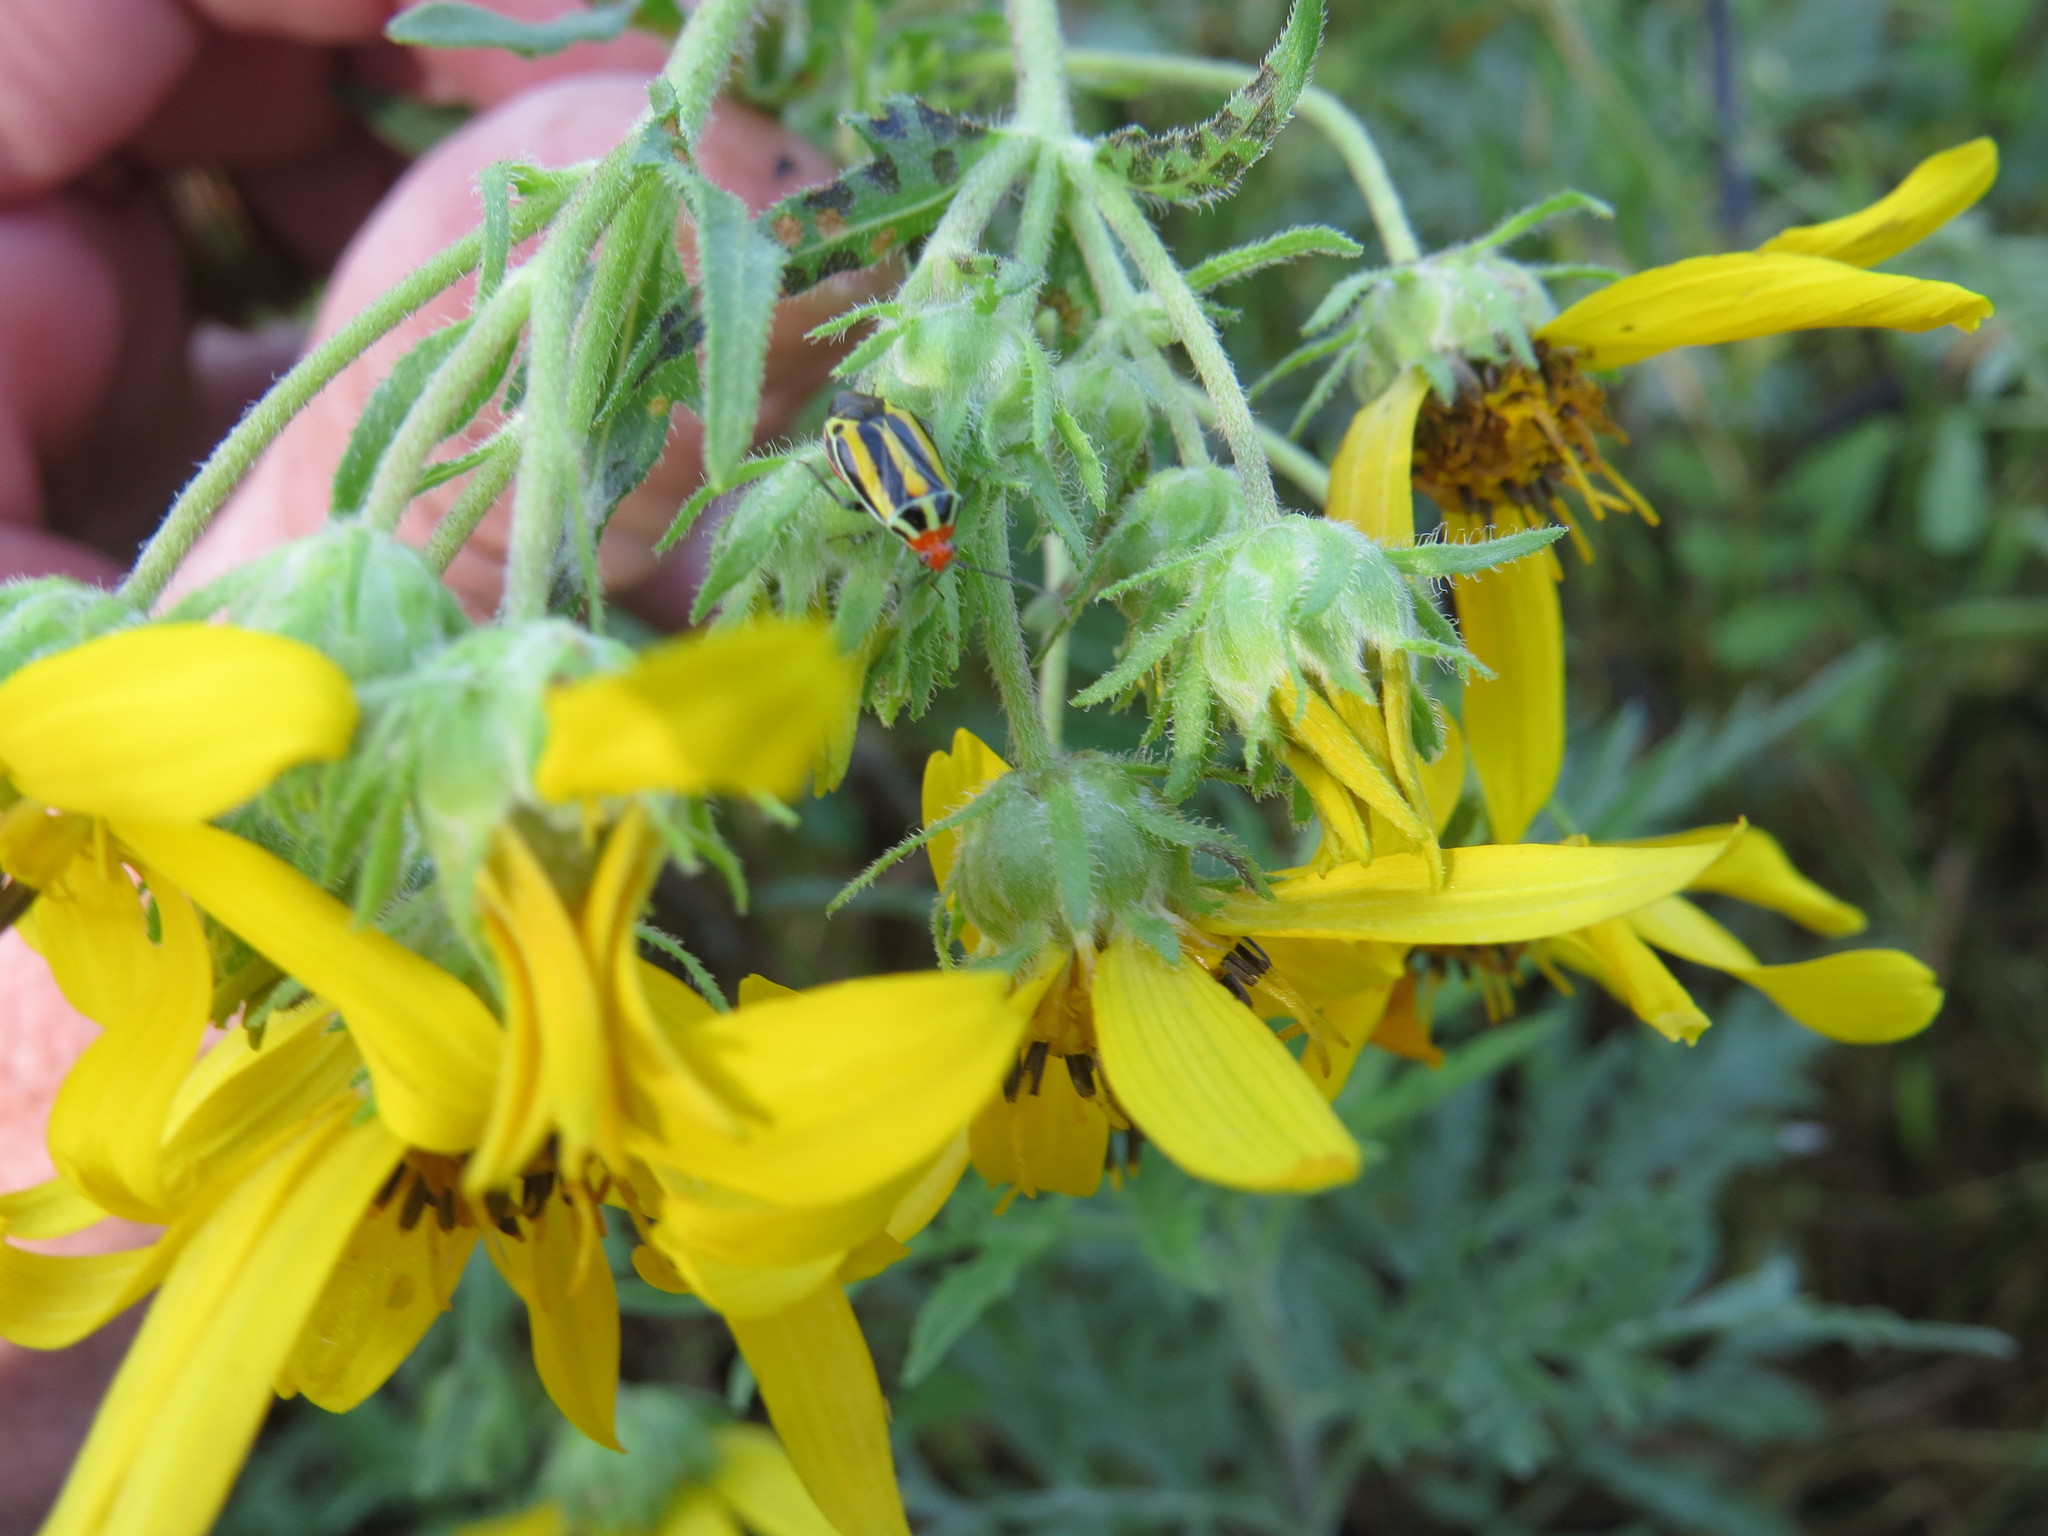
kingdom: Plantae
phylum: Tracheophyta
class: Magnoliopsida
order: Asterales
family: Asteraceae
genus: Engelmannia
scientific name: Engelmannia peristenia
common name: Engelmann's daisy
